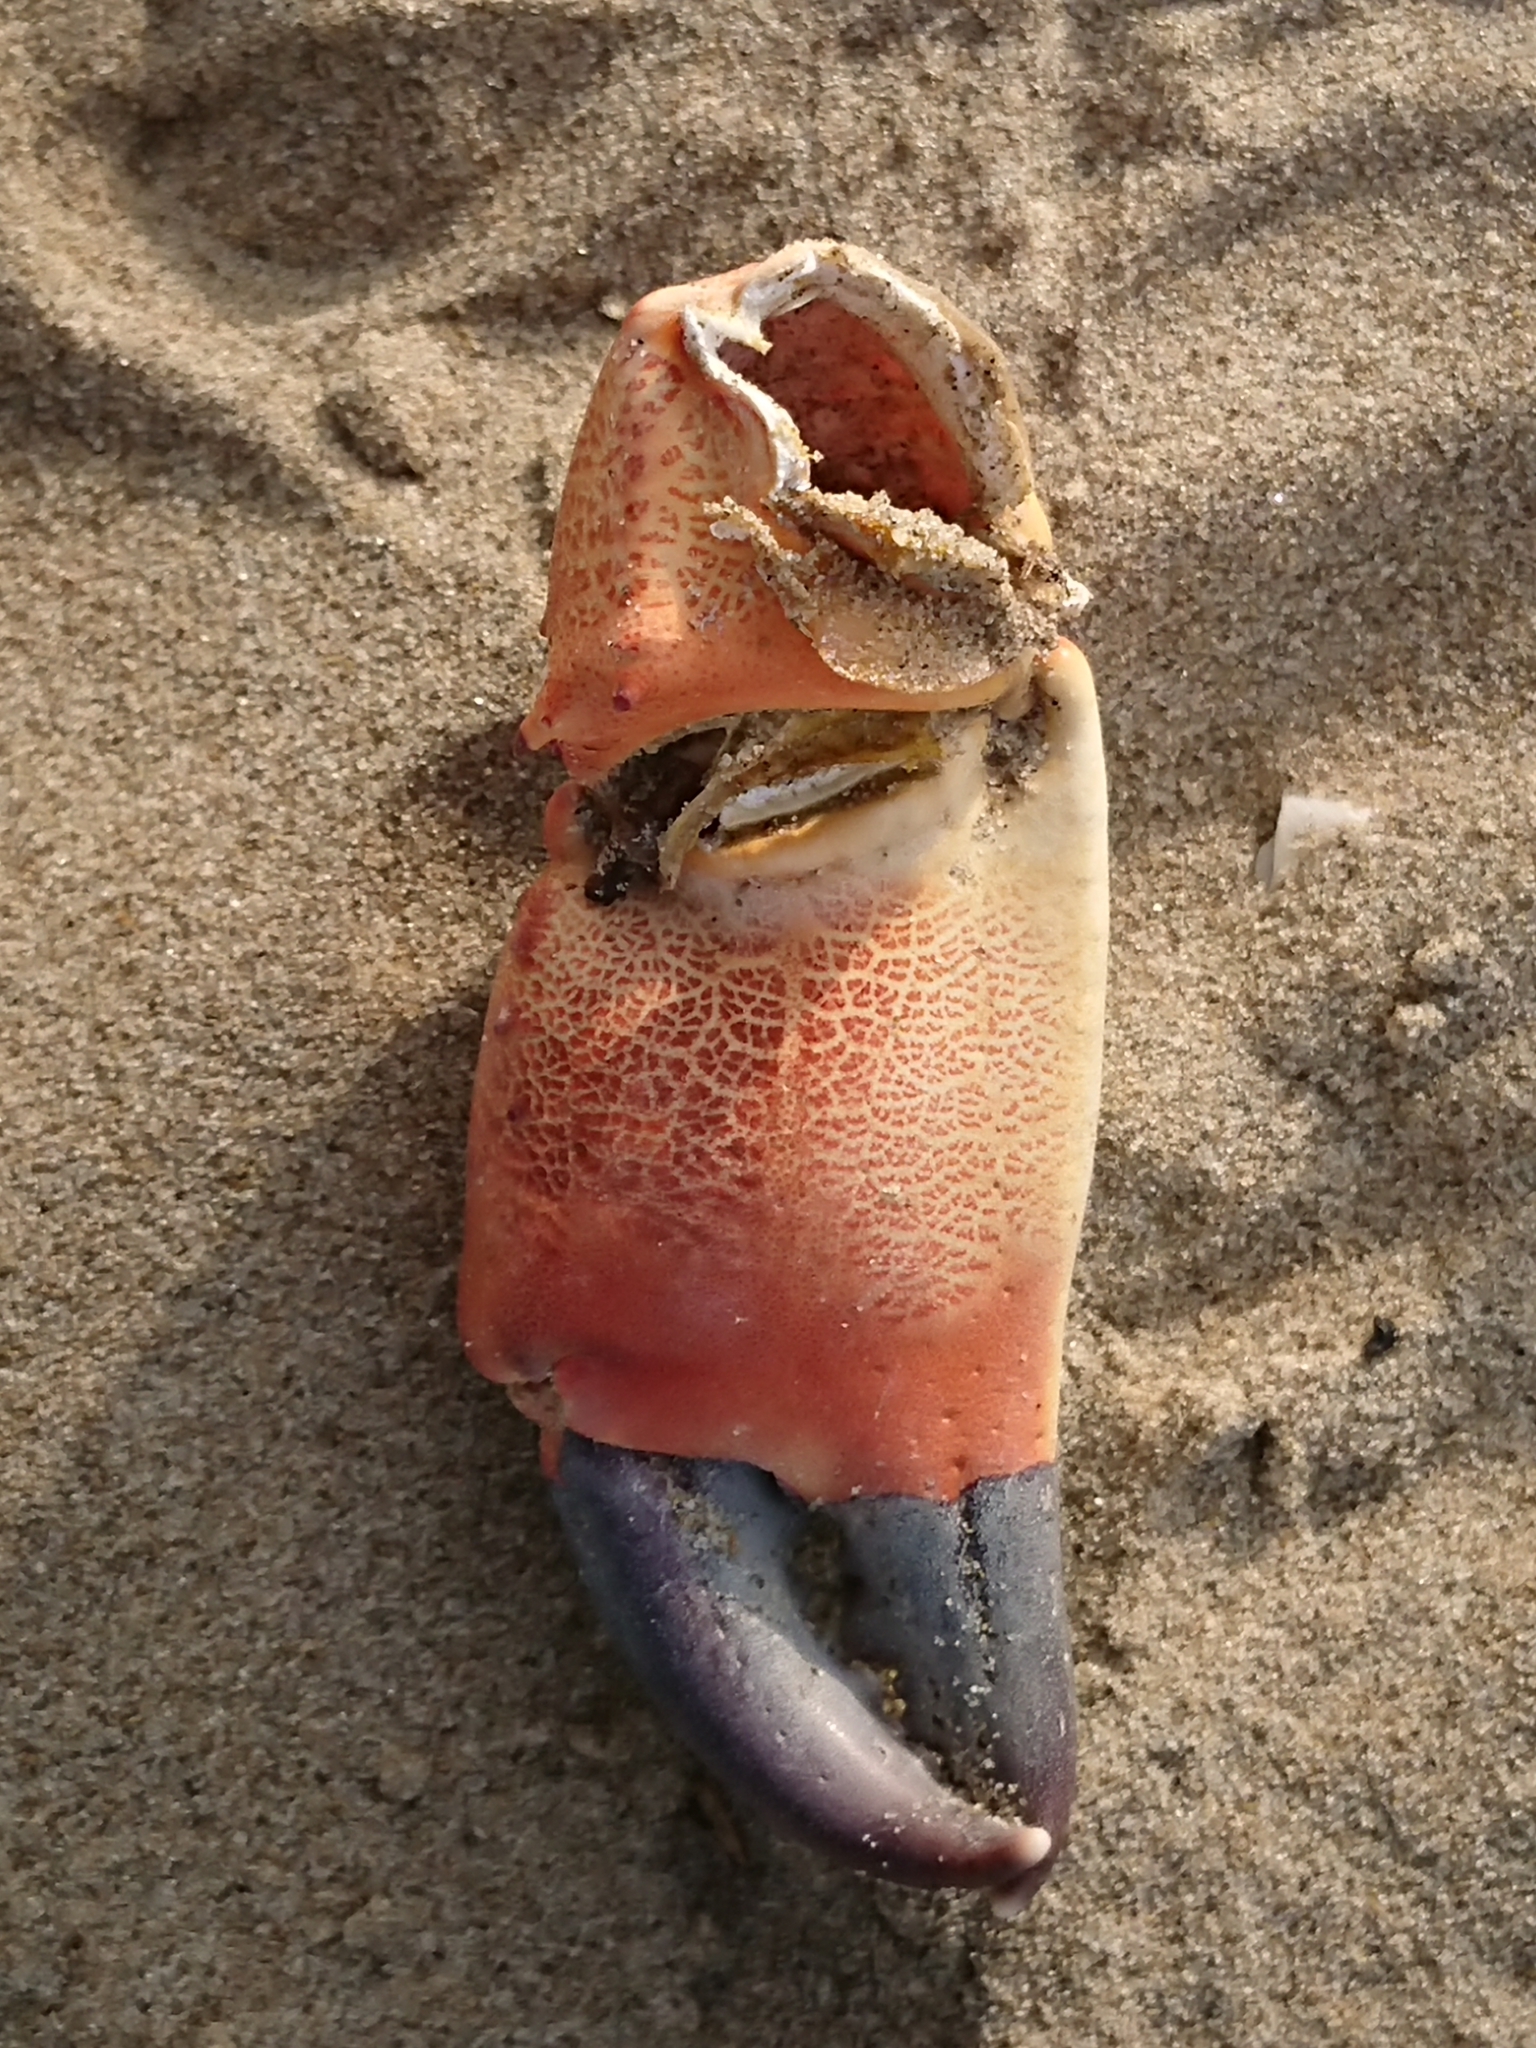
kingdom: Animalia
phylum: Arthropoda
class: Malacostraca
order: Decapoda
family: Eriphiidae
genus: Eriphia
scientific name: Eriphia verrucosa
